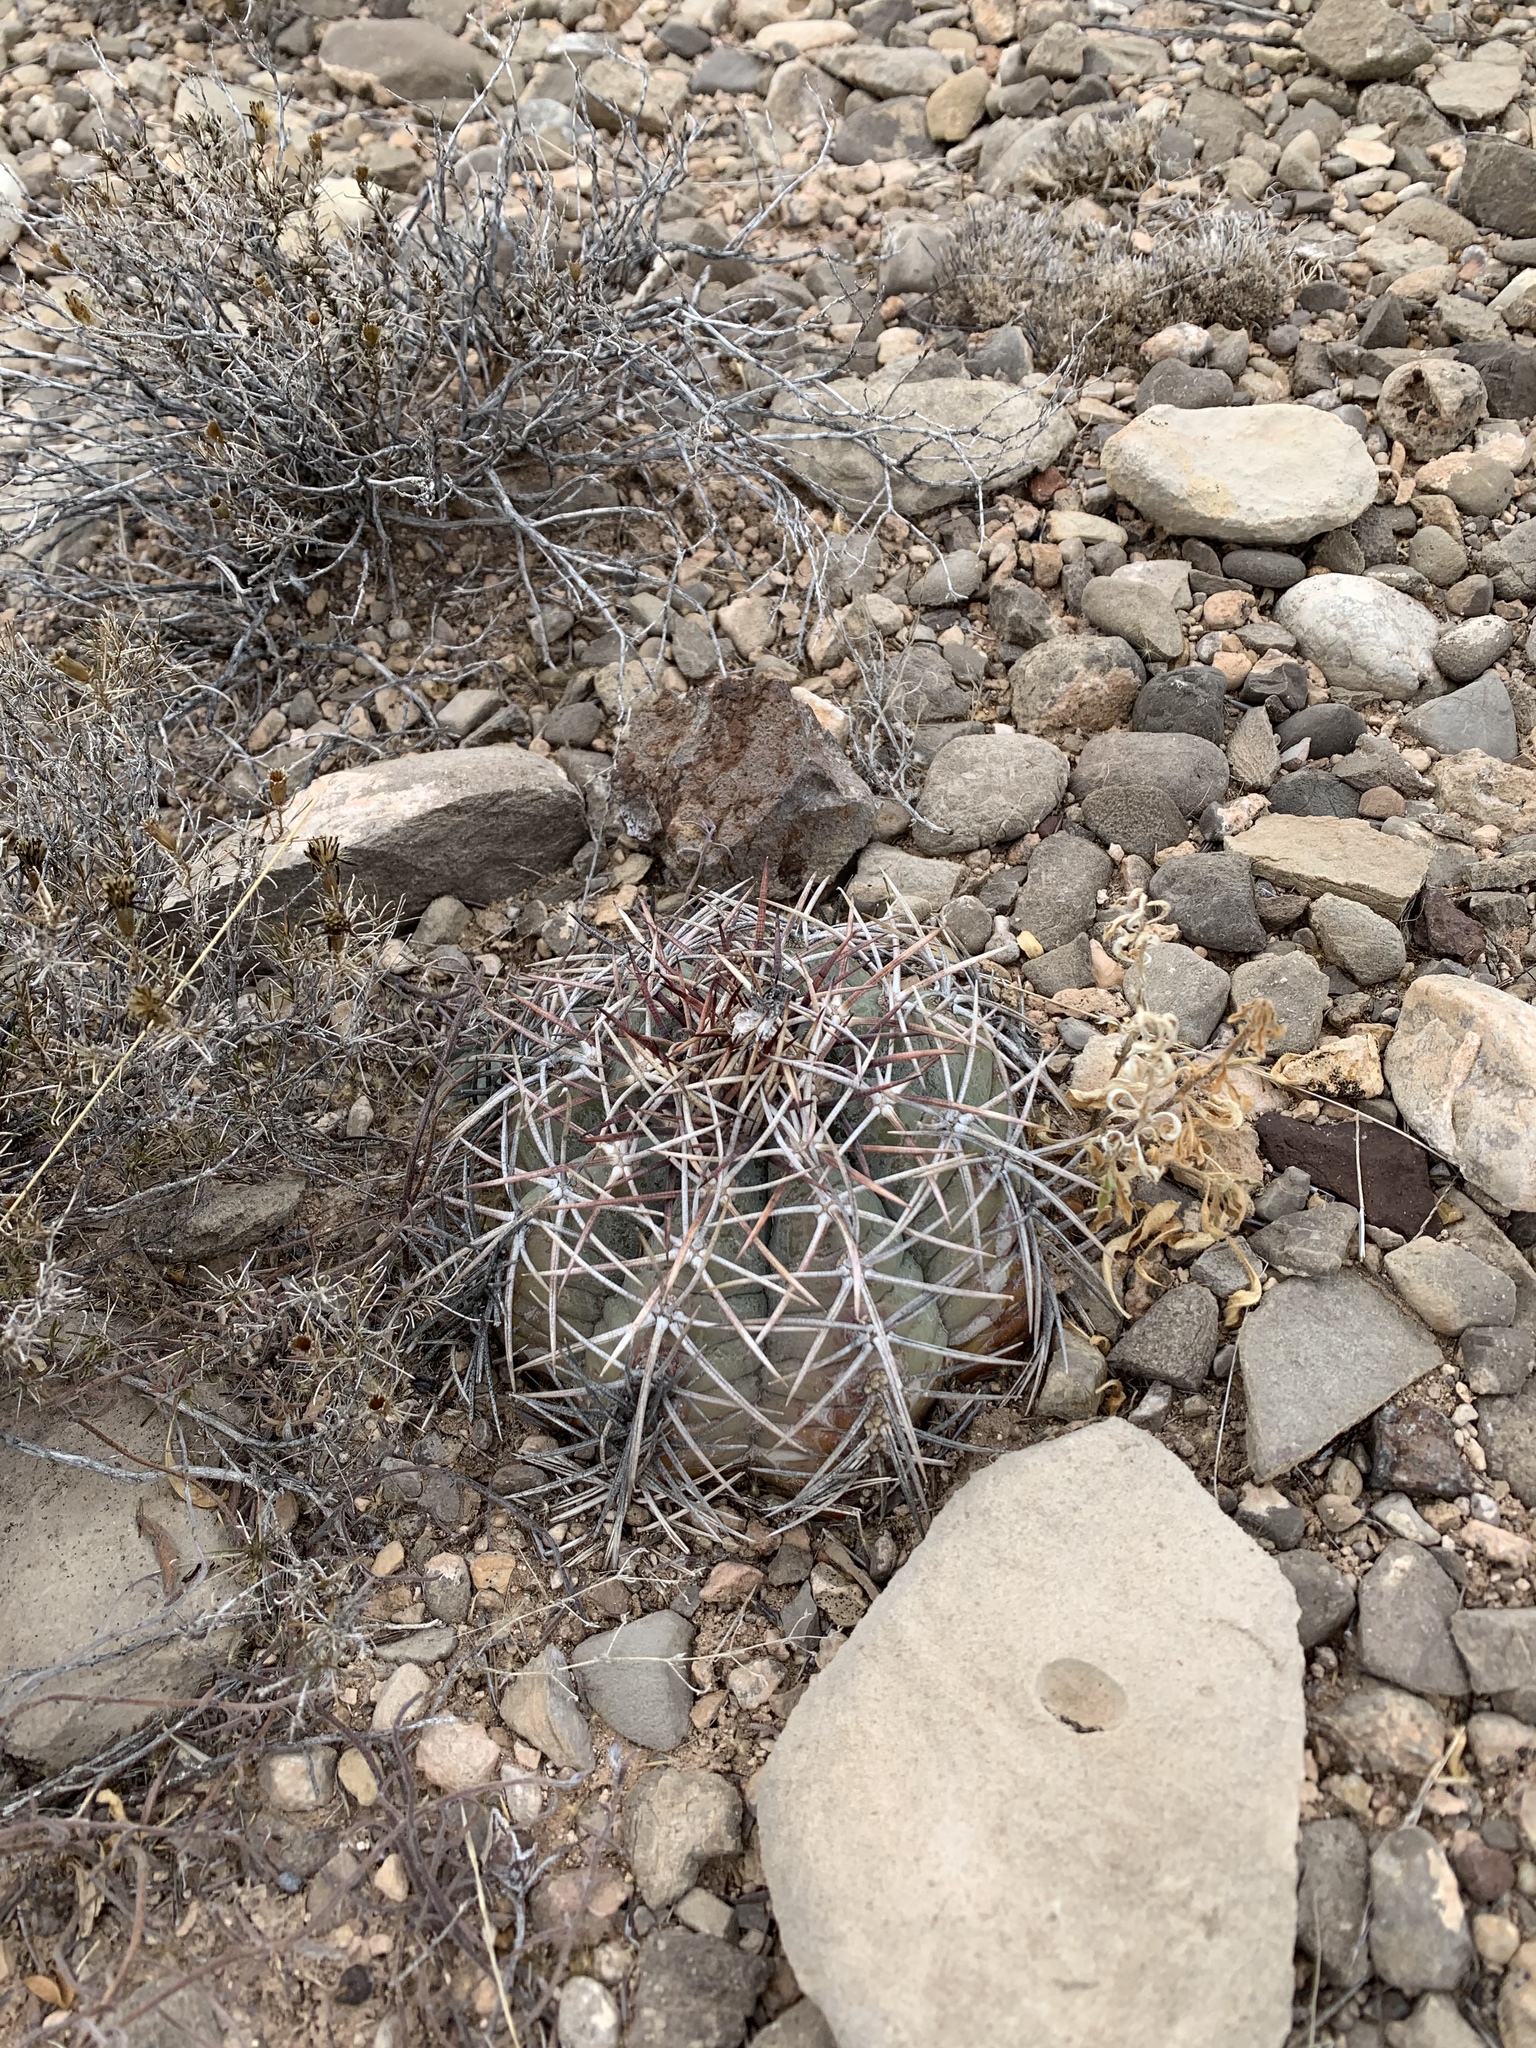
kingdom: Plantae
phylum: Tracheophyta
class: Magnoliopsida
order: Caryophyllales
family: Cactaceae
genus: Echinocactus
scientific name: Echinocactus horizonthalonius
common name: Devilshead
